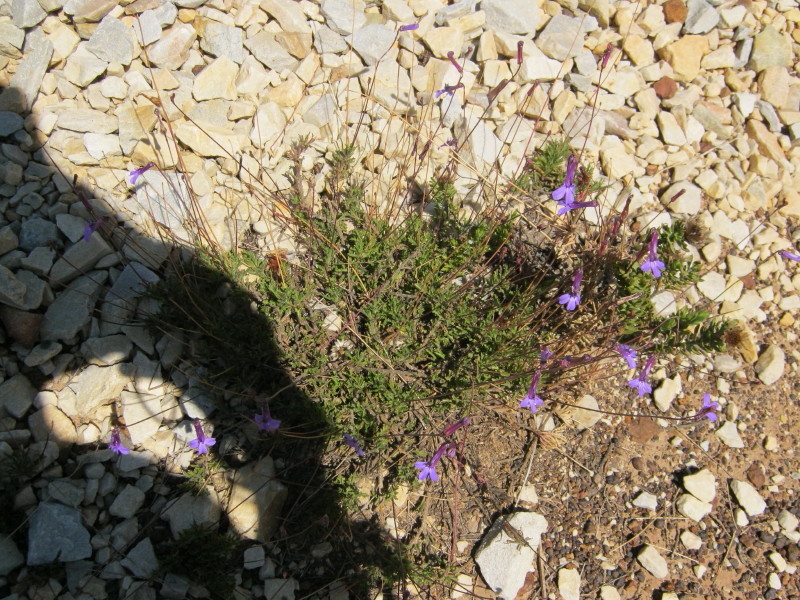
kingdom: Plantae
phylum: Tracheophyta
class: Magnoliopsida
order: Asterales
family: Campanulaceae
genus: Lobelia
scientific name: Lobelia tomentosa
